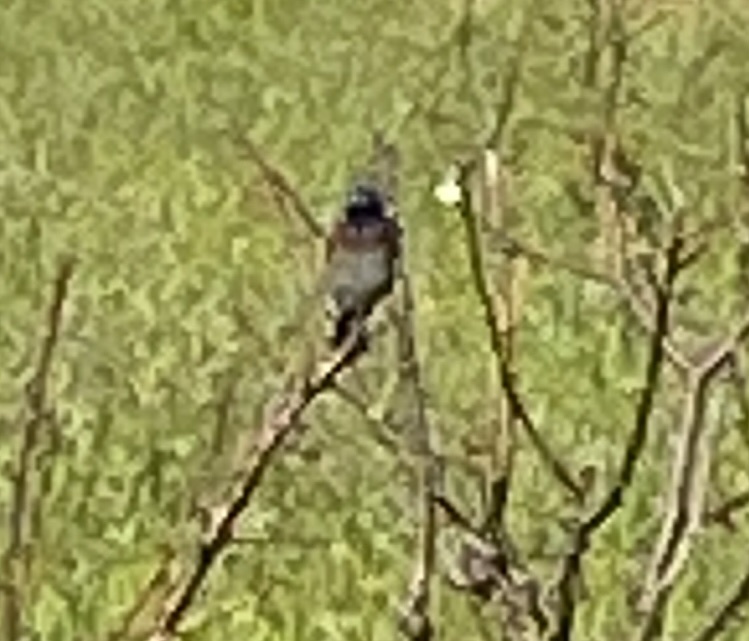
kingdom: Animalia
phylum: Chordata
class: Aves
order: Passeriformes
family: Turdidae
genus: Sialia
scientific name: Sialia mexicana
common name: Western bluebird
